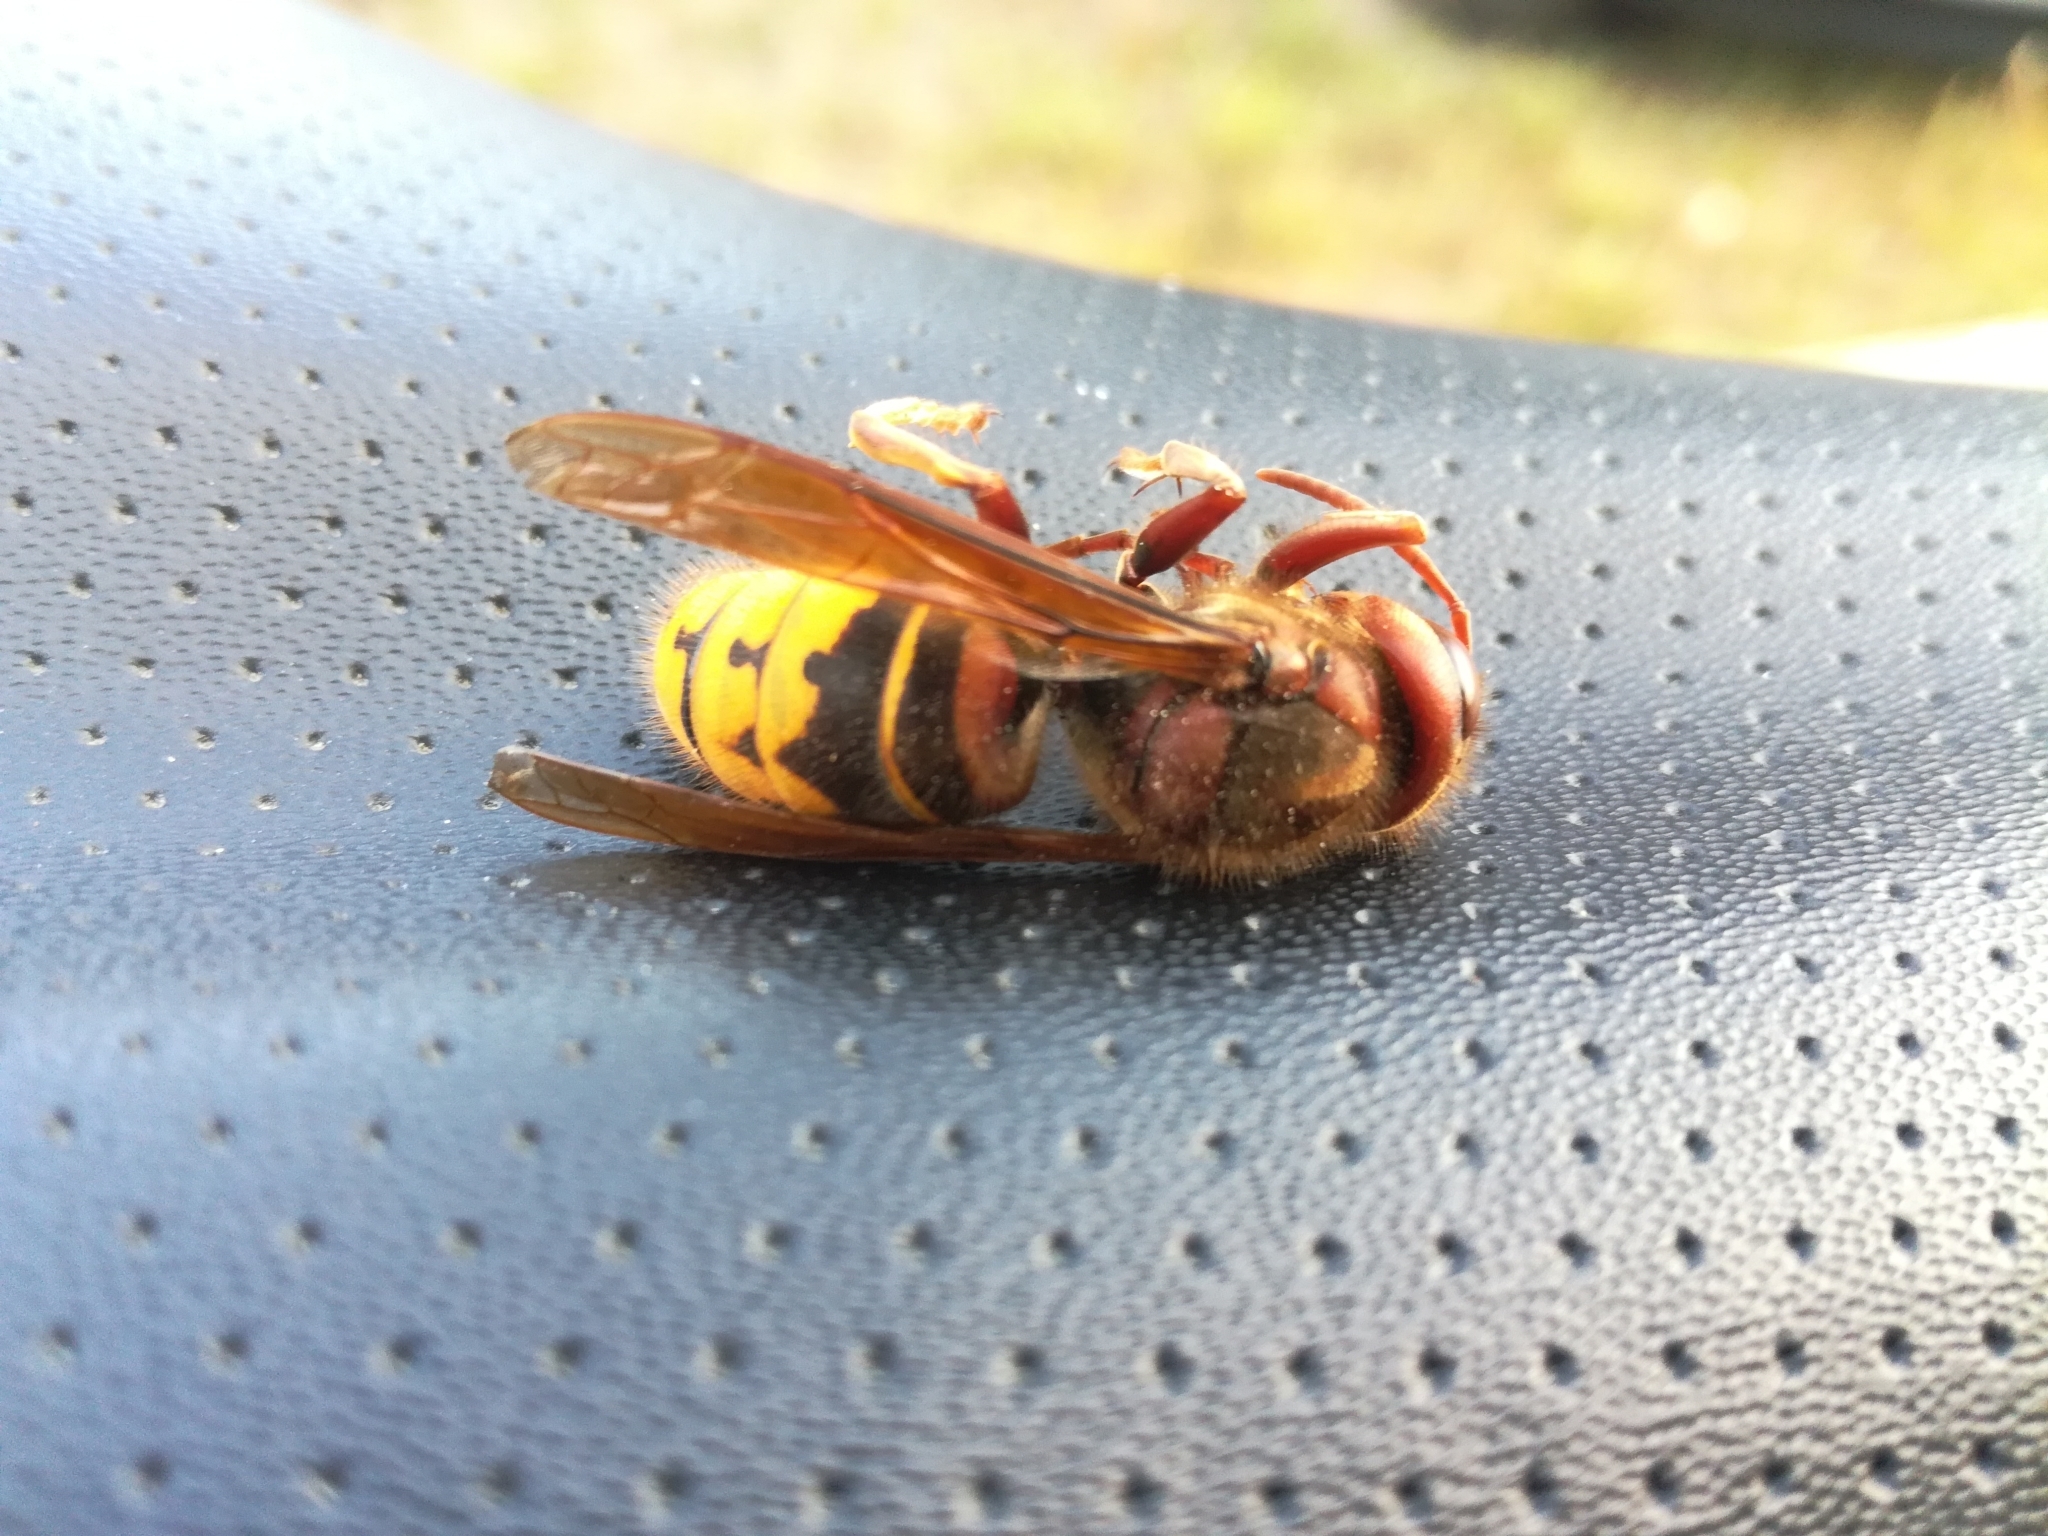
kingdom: Animalia
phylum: Arthropoda
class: Insecta
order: Hymenoptera
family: Vespidae
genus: Vespa
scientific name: Vespa crabro
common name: Hornet
